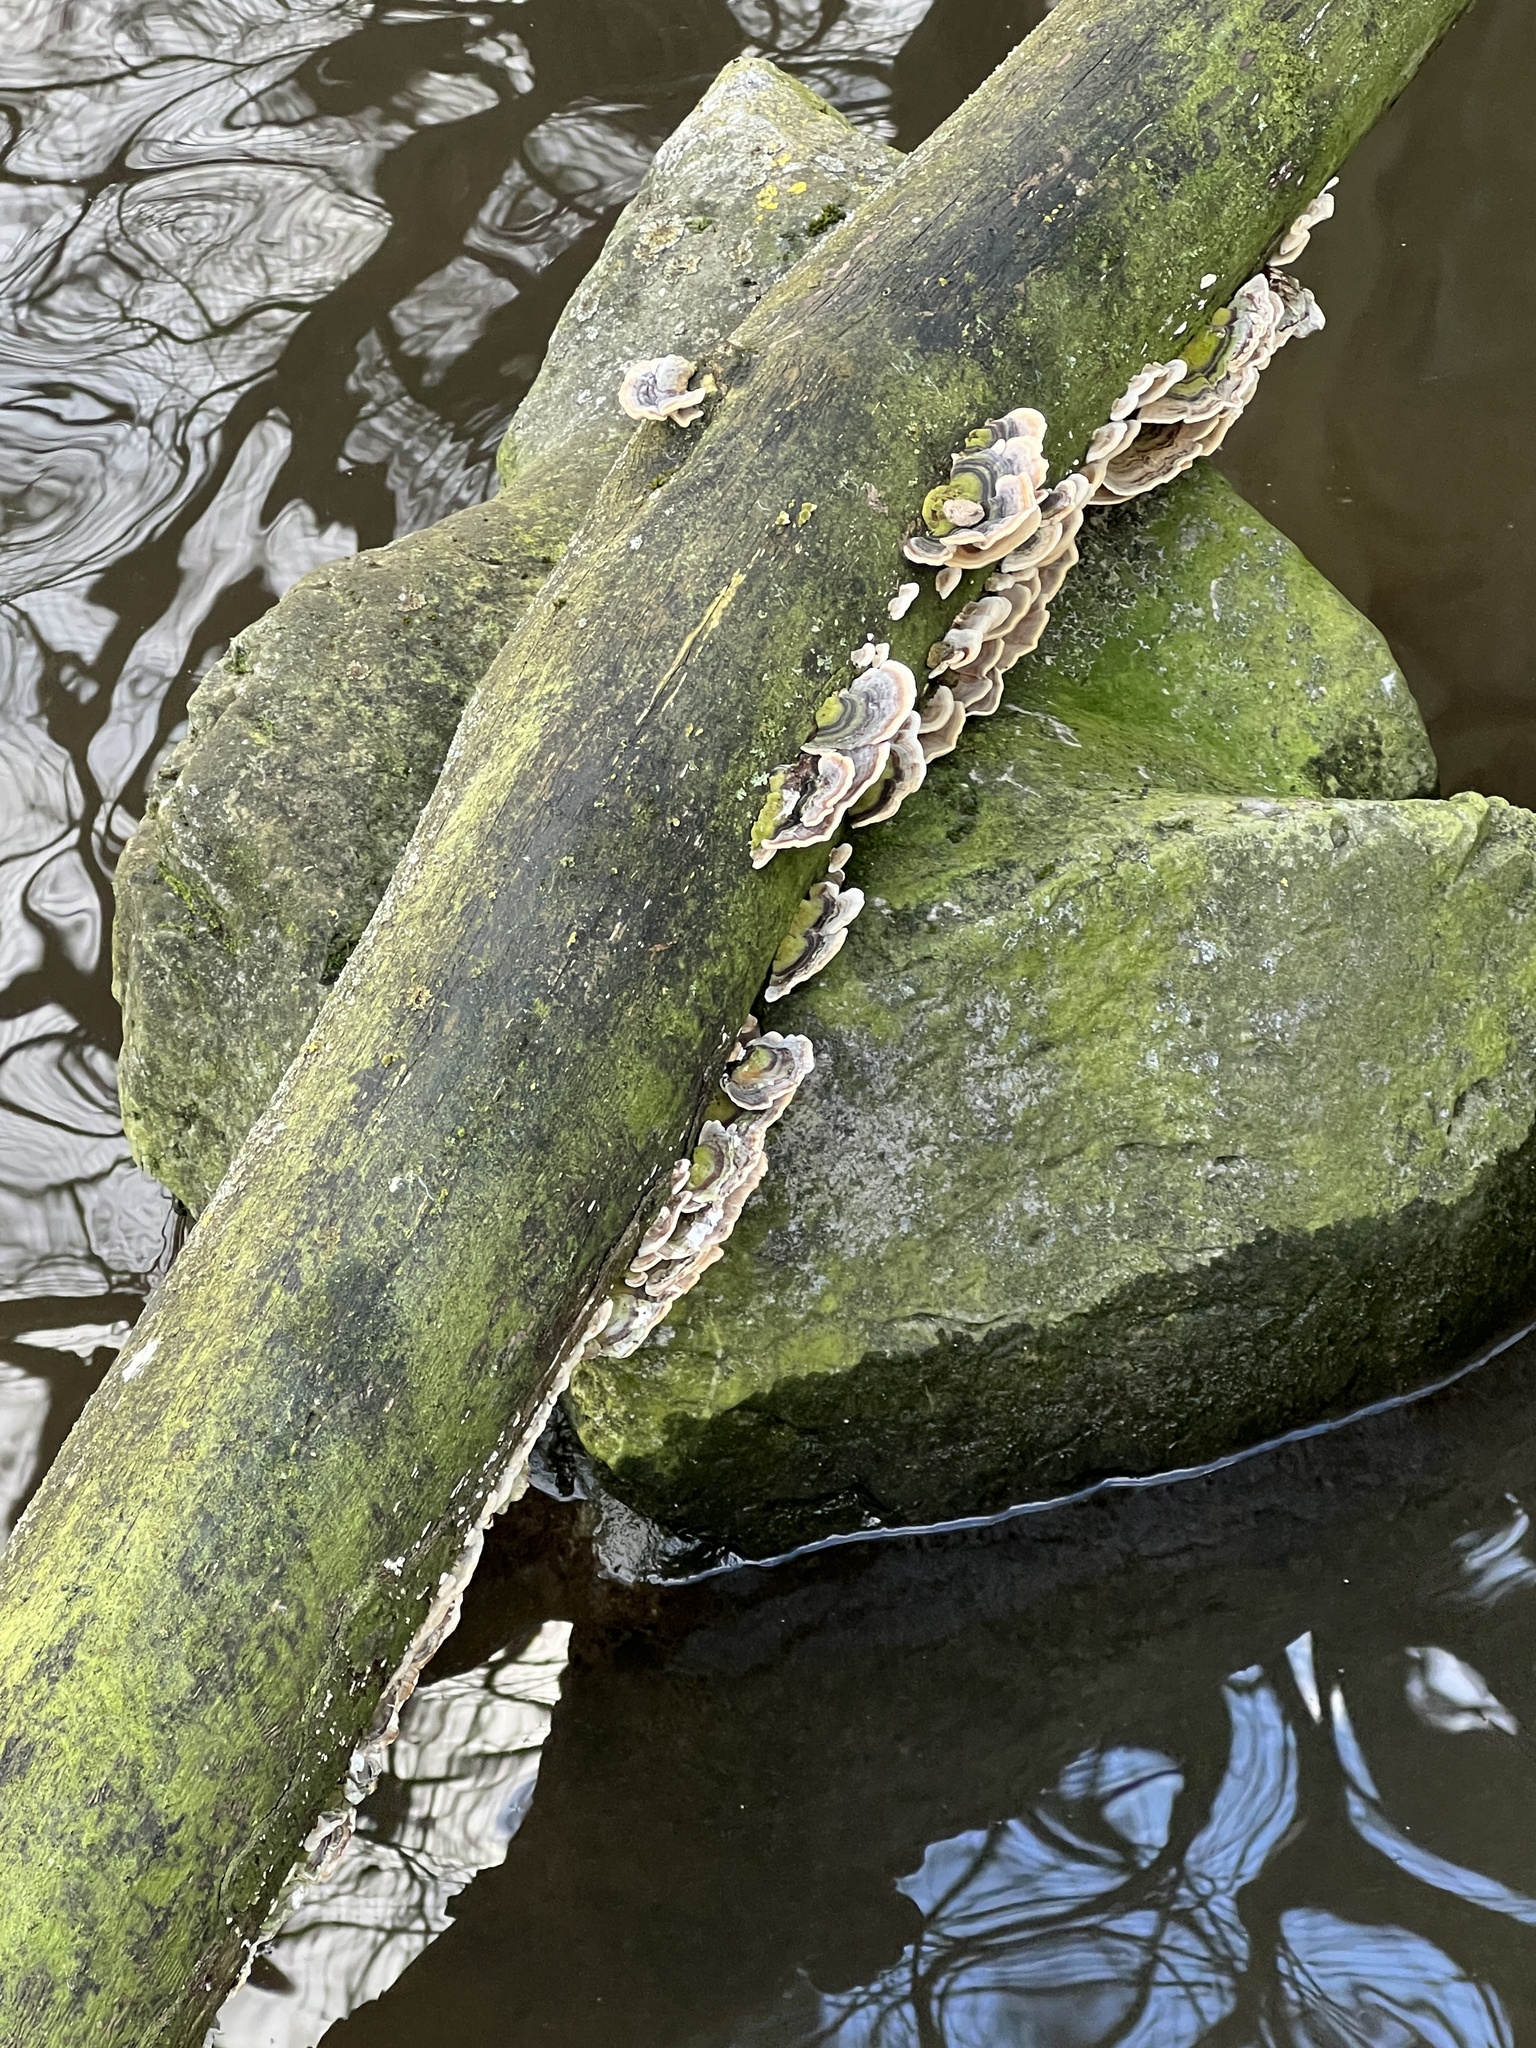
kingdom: Fungi
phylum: Basidiomycota
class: Agaricomycetes
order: Polyporales
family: Polyporaceae
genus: Trametes
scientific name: Trametes versicolor
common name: Turkeytail
